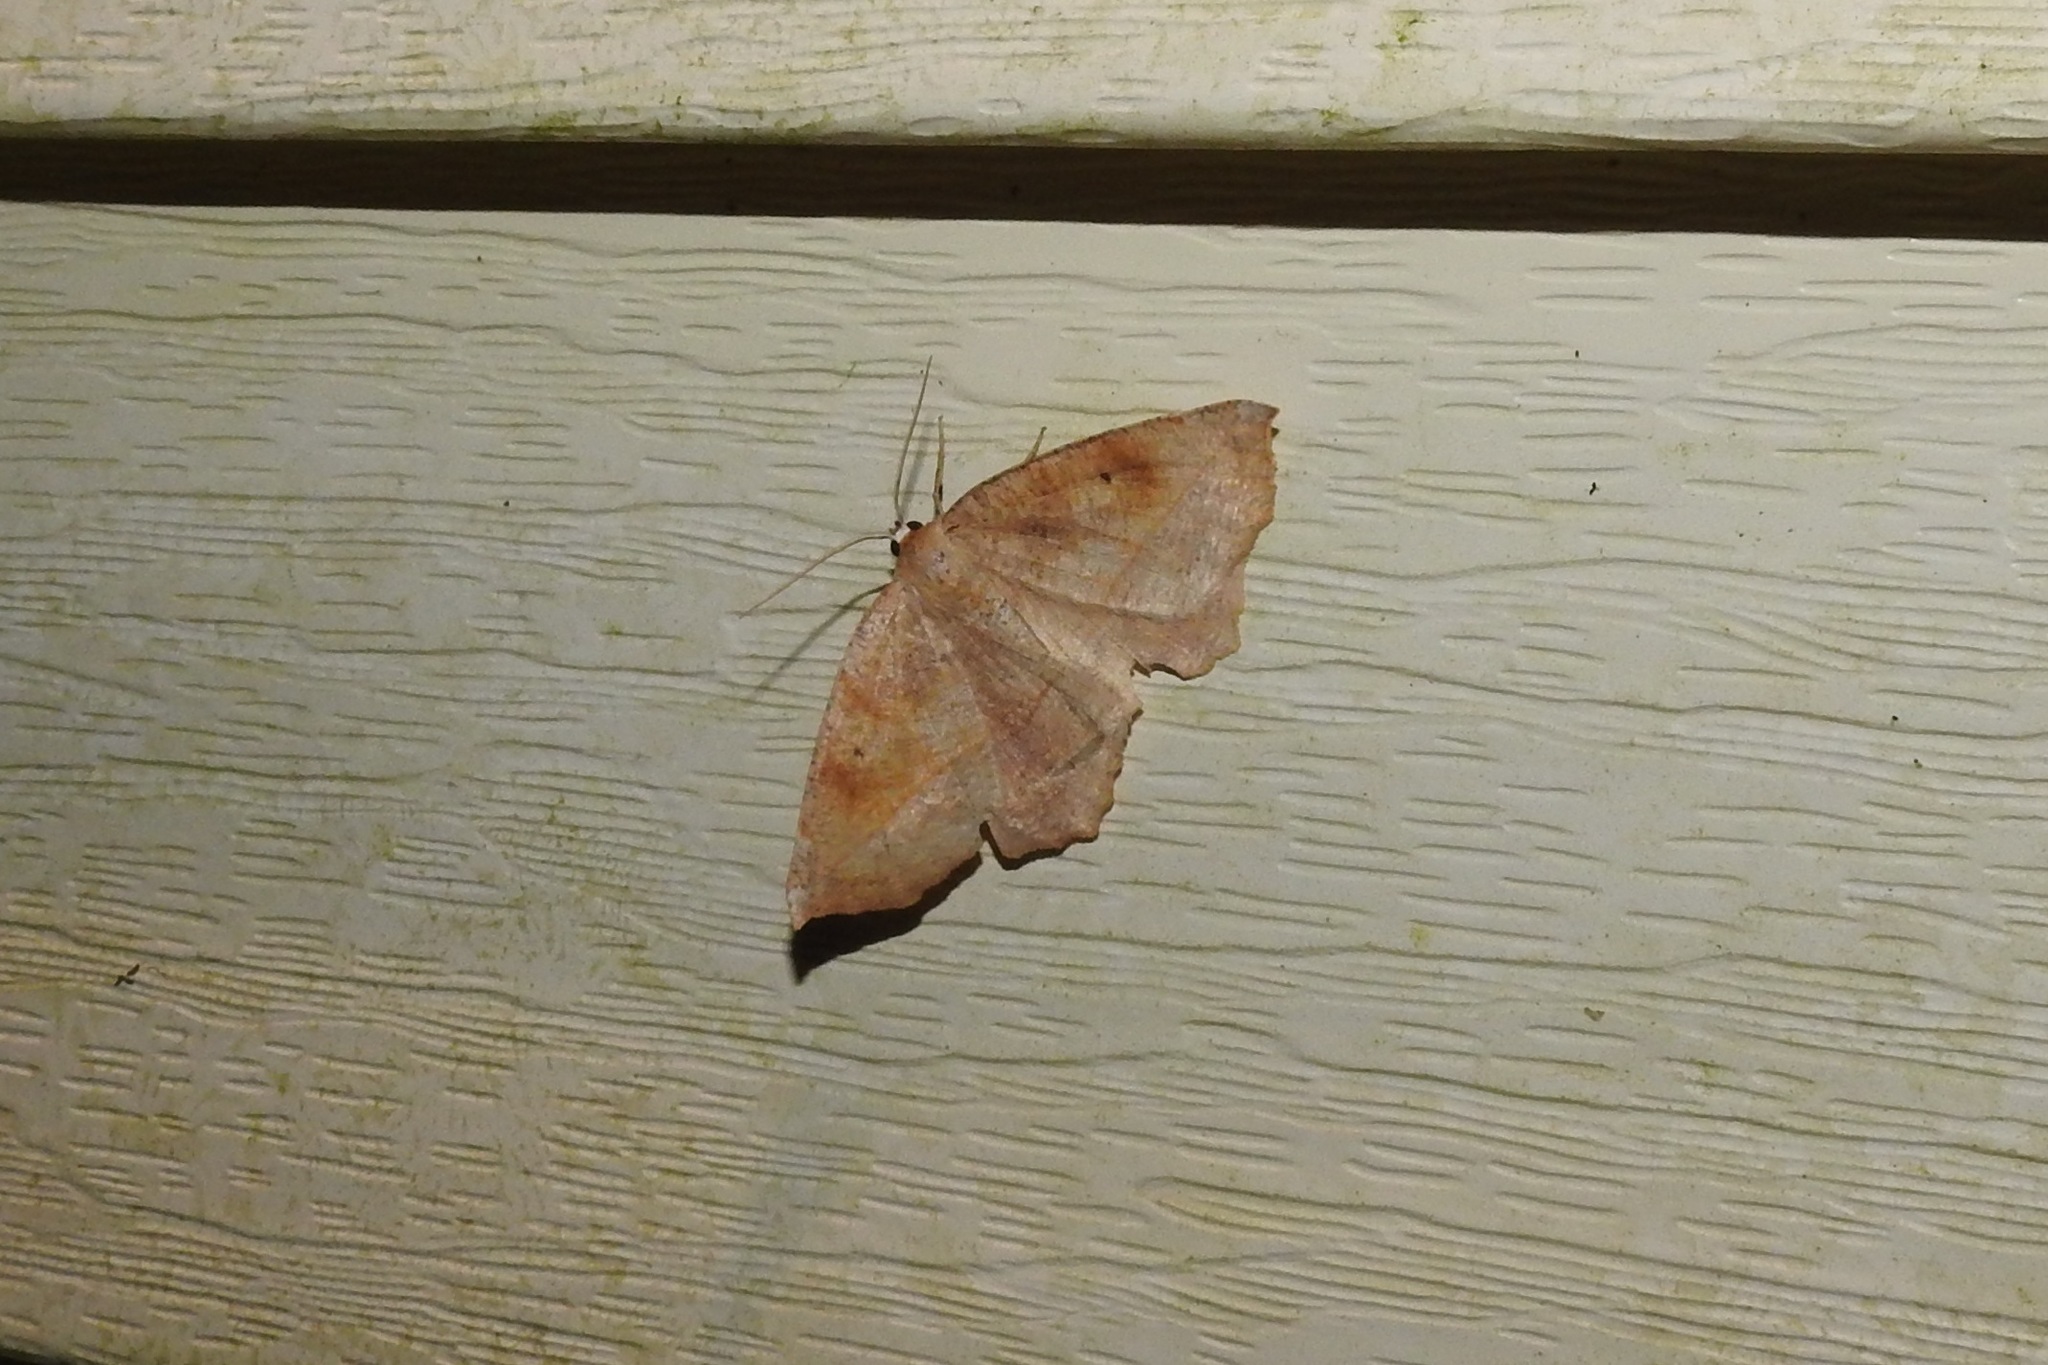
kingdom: Animalia
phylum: Arthropoda
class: Insecta
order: Lepidoptera
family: Geometridae
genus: Eutrapela
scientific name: Eutrapela clemataria
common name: Curved-toothed geometer
